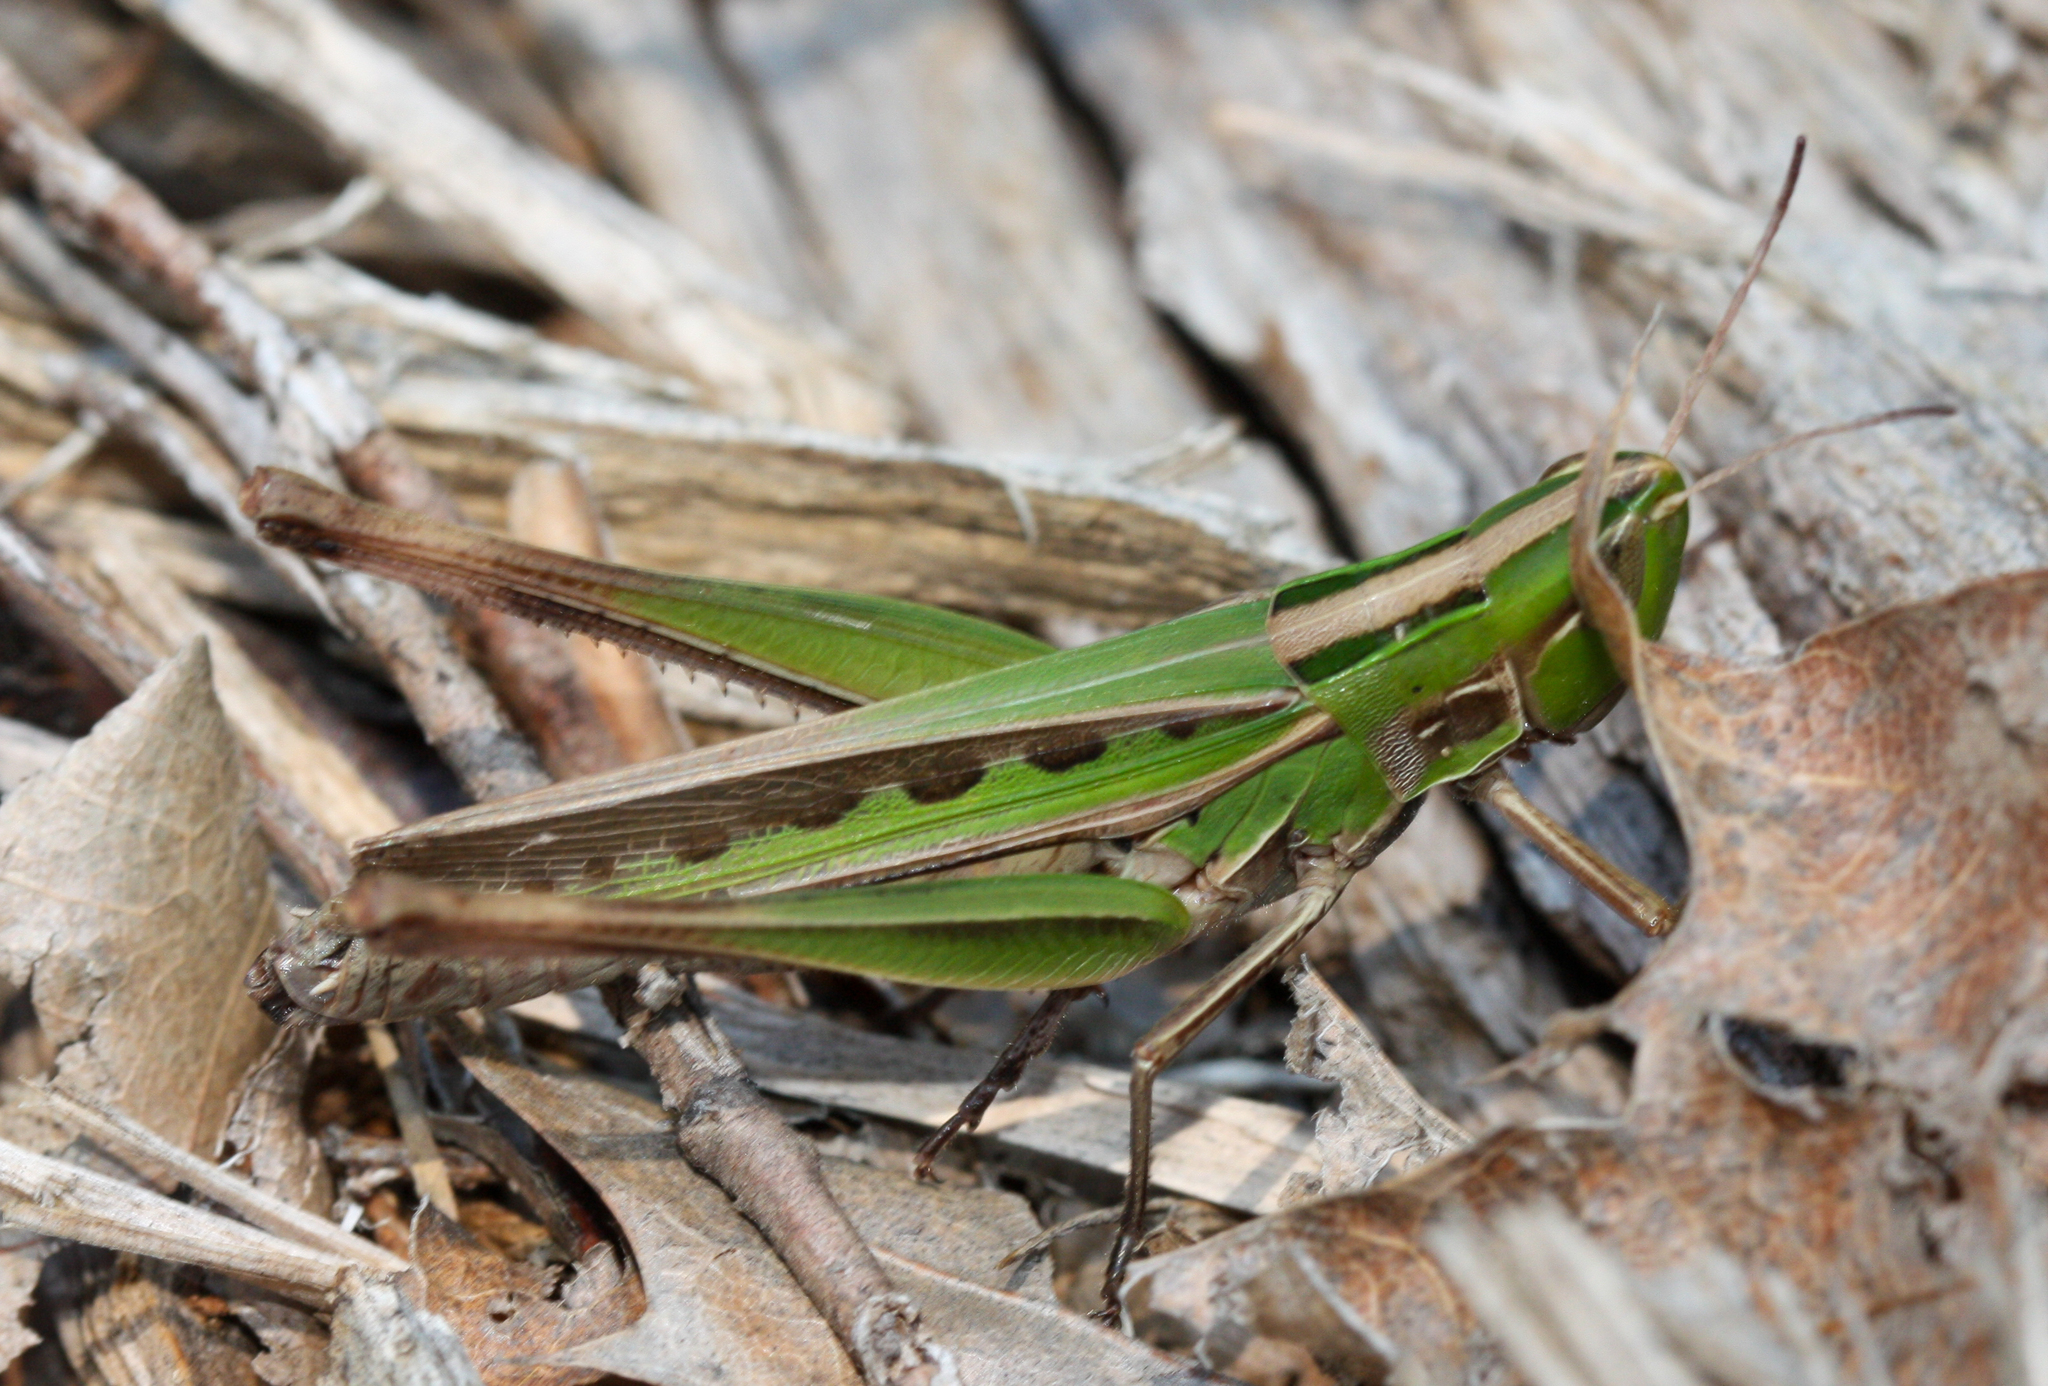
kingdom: Animalia
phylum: Arthropoda
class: Insecta
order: Orthoptera
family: Acrididae
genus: Syrbula
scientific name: Syrbula admirabilis
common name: Handsome grasshopper
